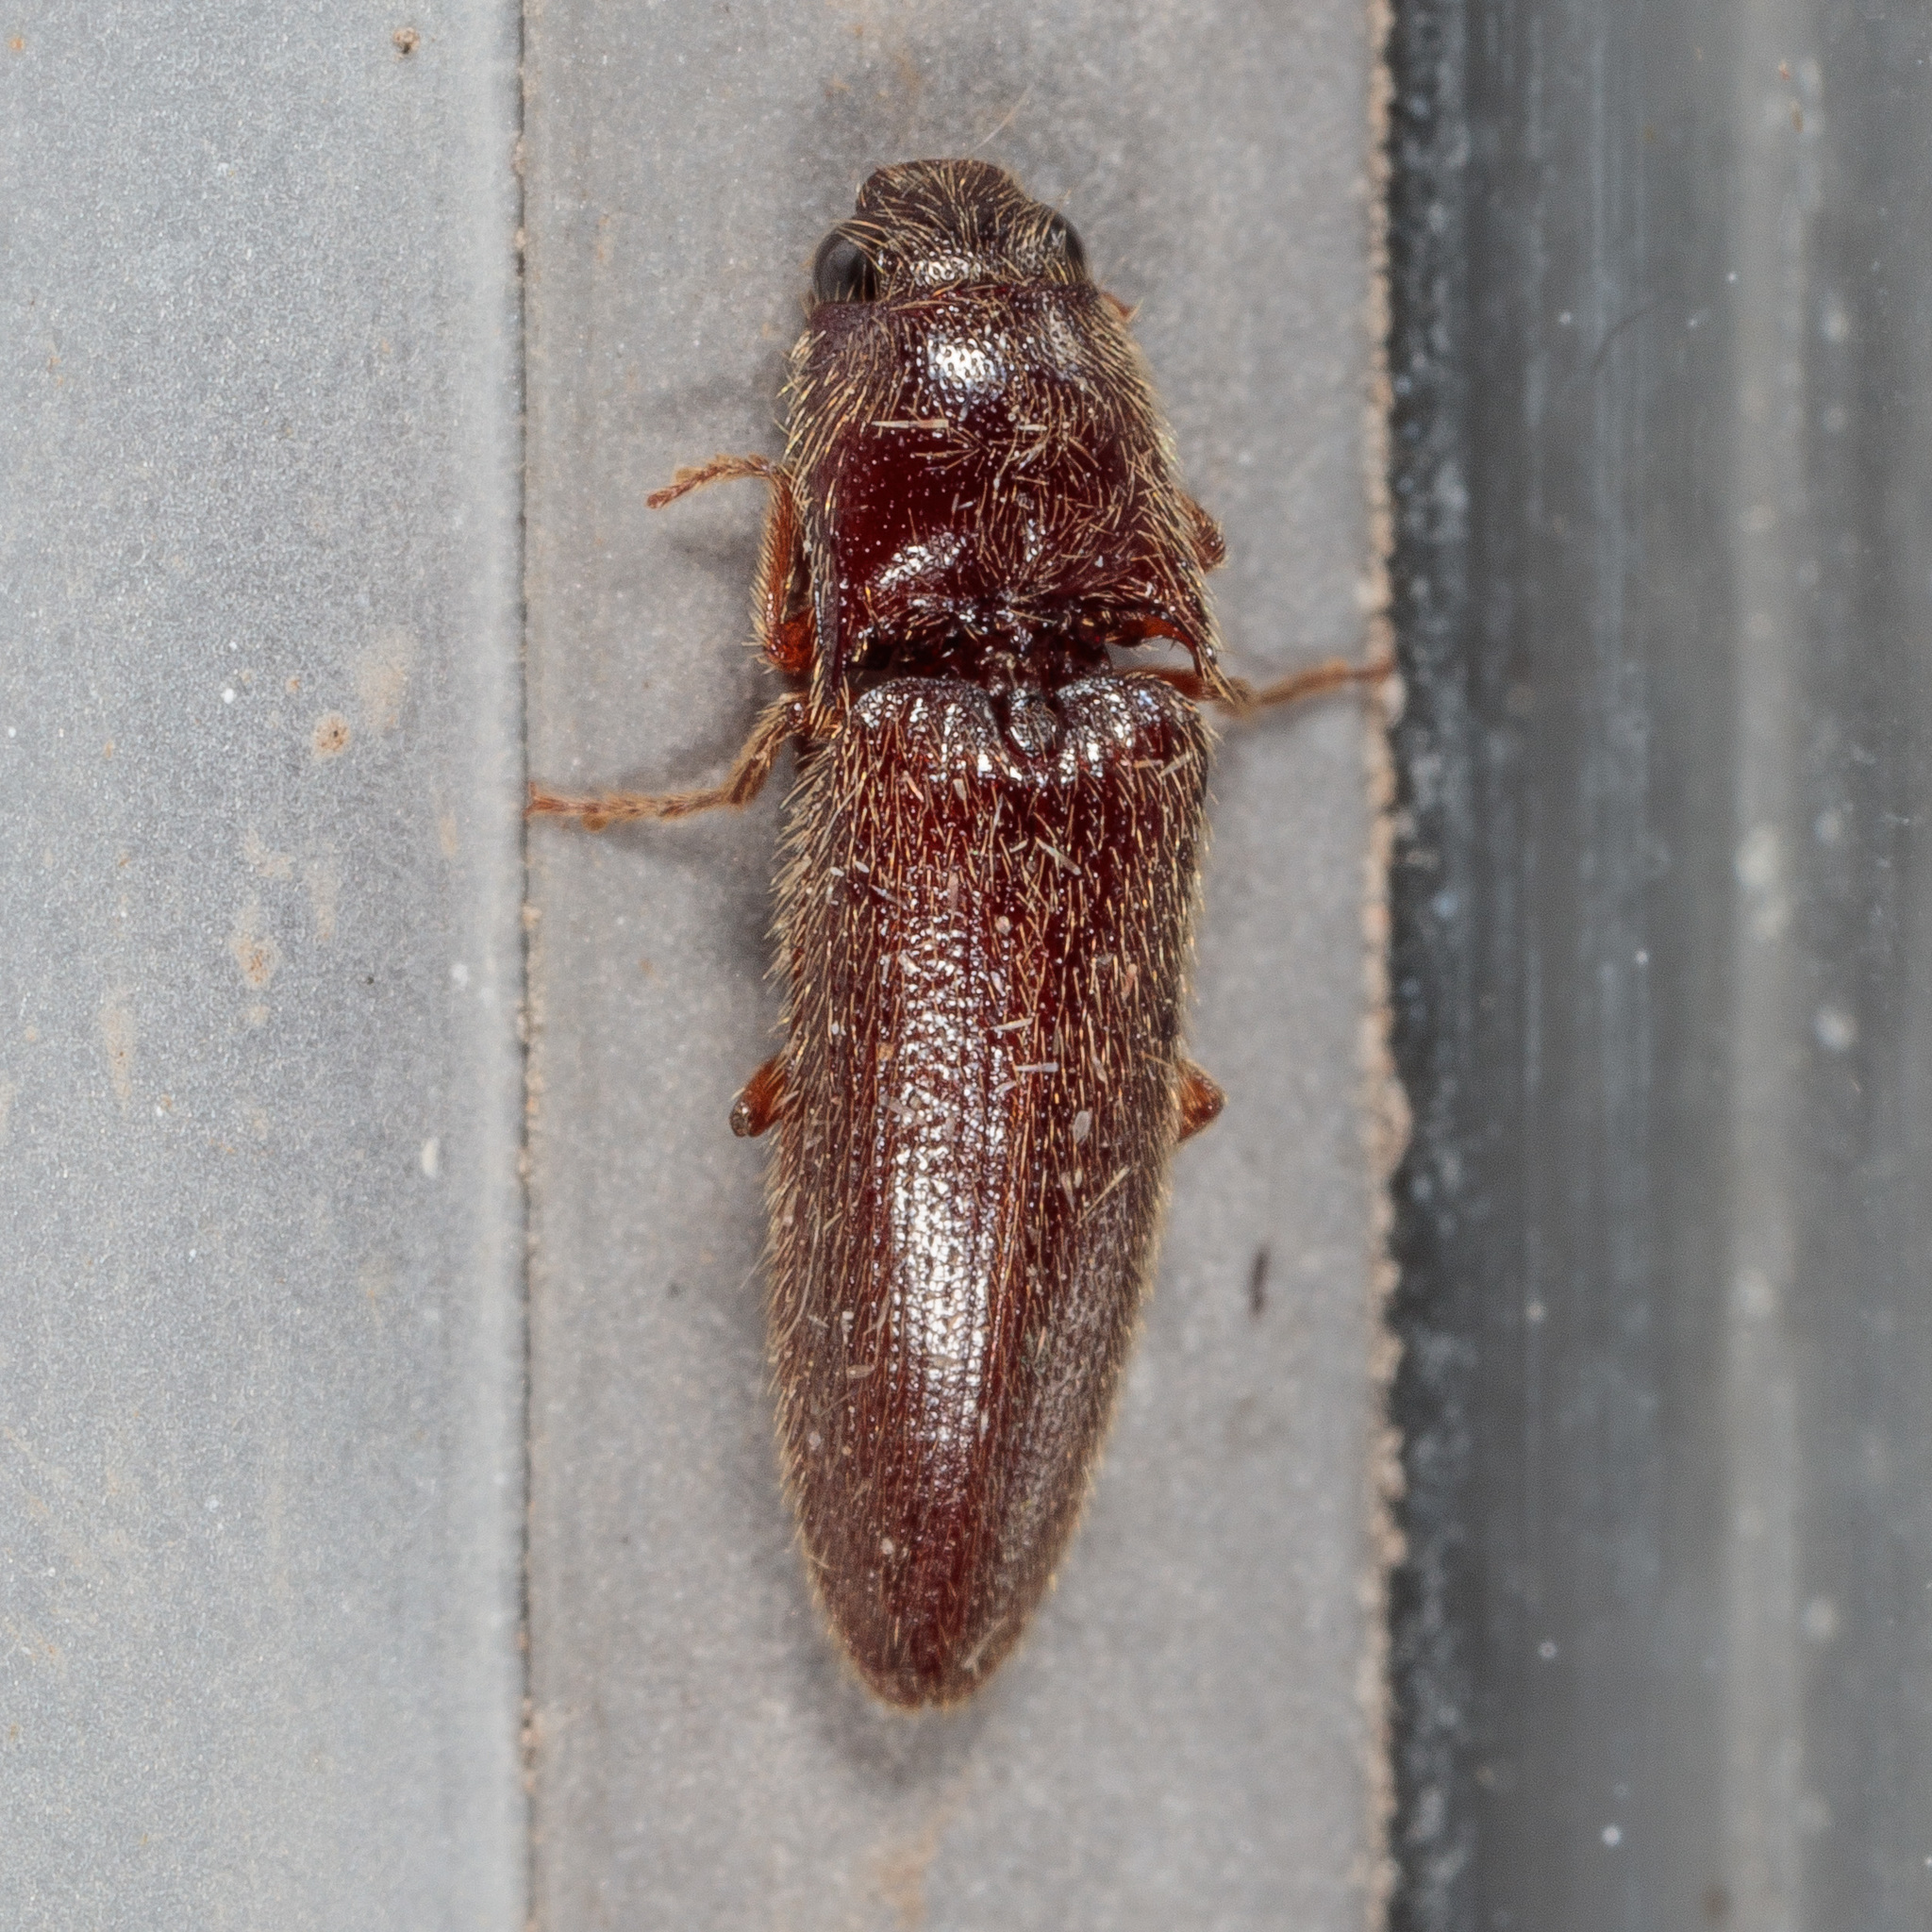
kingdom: Animalia
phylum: Arthropoda
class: Insecta
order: Coleoptera
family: Elateridae
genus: Dipropus
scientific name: Dipropus
